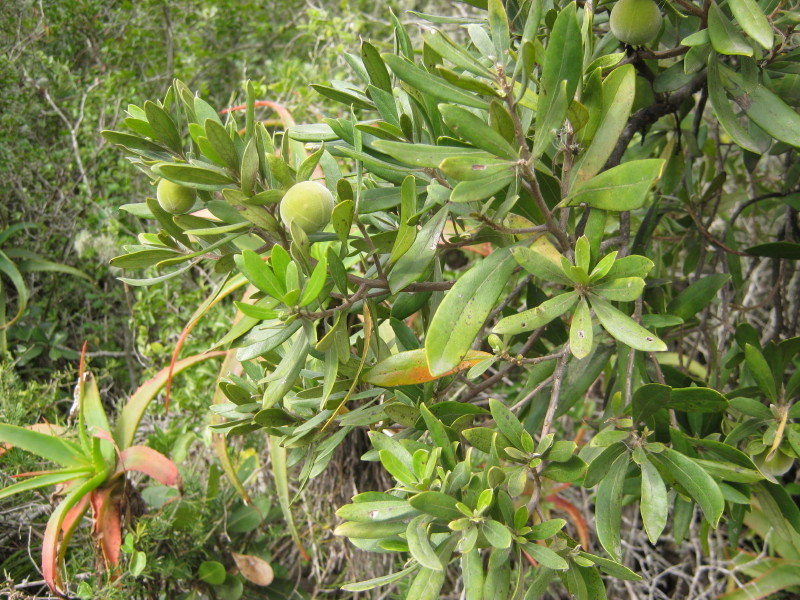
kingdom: Plantae
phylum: Tracheophyta
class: Magnoliopsida
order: Ericales
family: Ebenaceae
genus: Diospyros
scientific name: Diospyros dichrophylla
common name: Common star-apple
